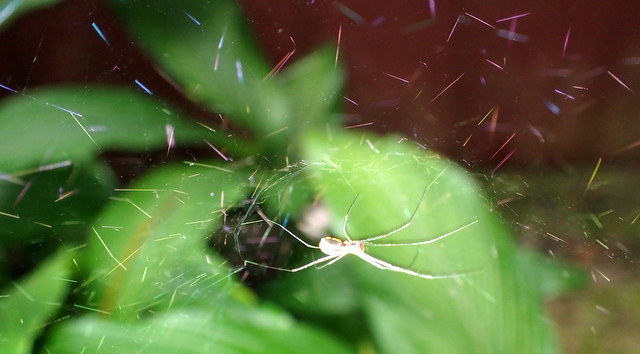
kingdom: Animalia
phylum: Arthropoda
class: Arachnida
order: Araneae
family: Linyphiidae
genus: Neriene
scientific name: Neriene radiata
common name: Filmy dome spider
